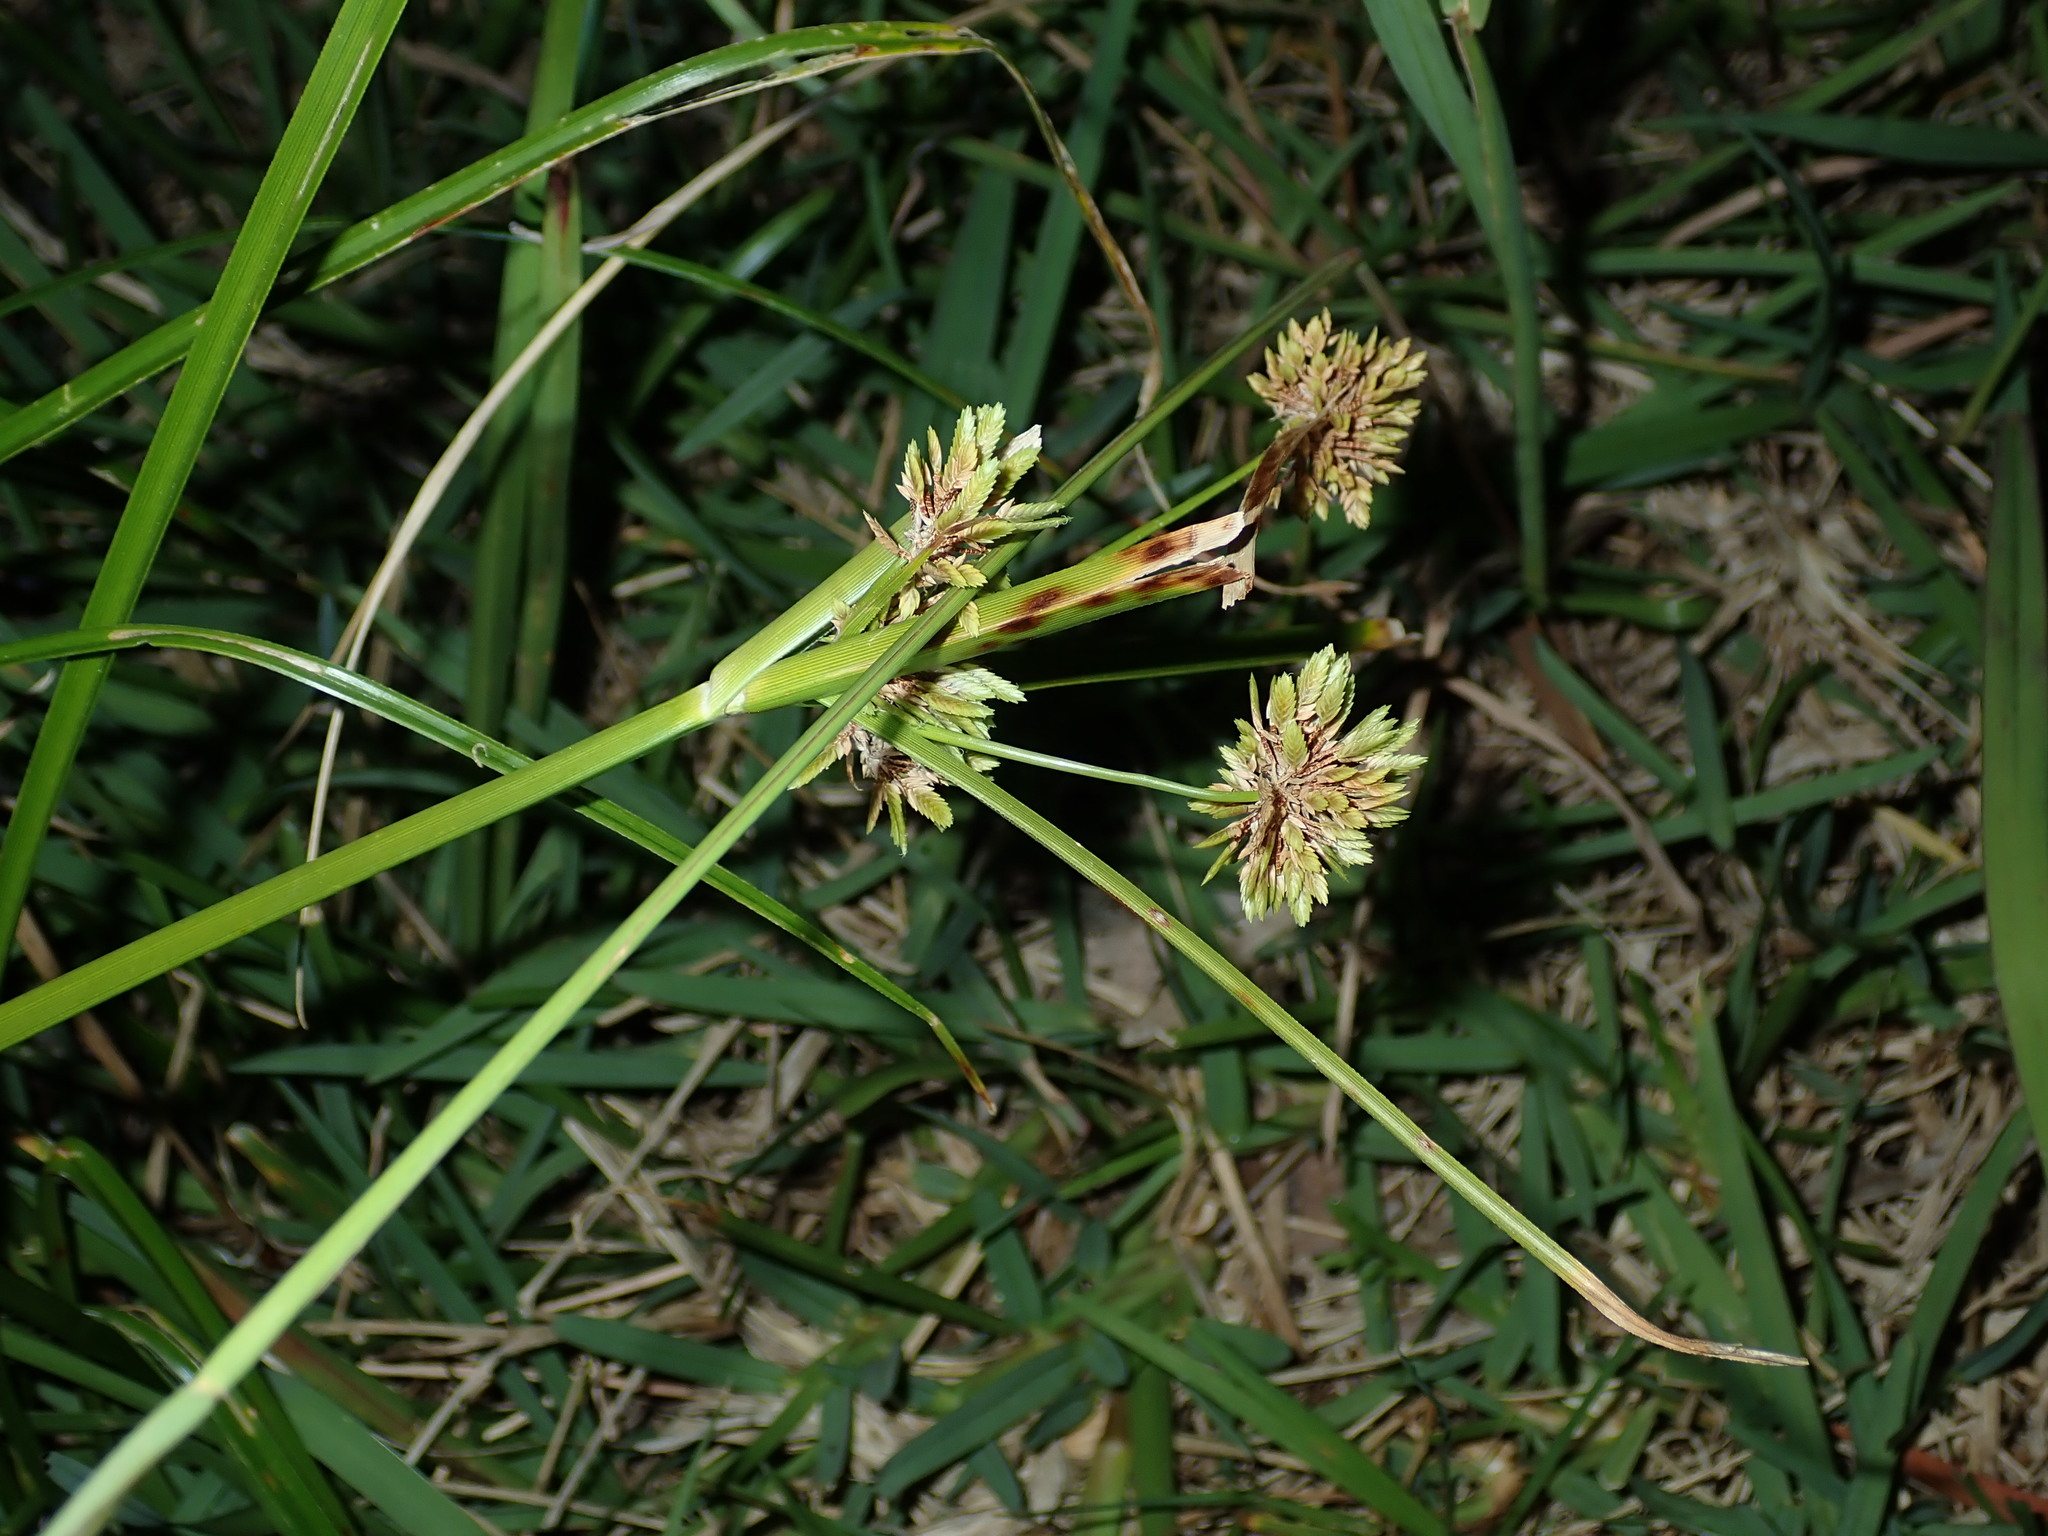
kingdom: Plantae
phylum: Tracheophyta
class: Liliopsida
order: Poales
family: Cyperaceae
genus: Cyperus
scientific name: Cyperus eragrostis
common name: Tall flatsedge
